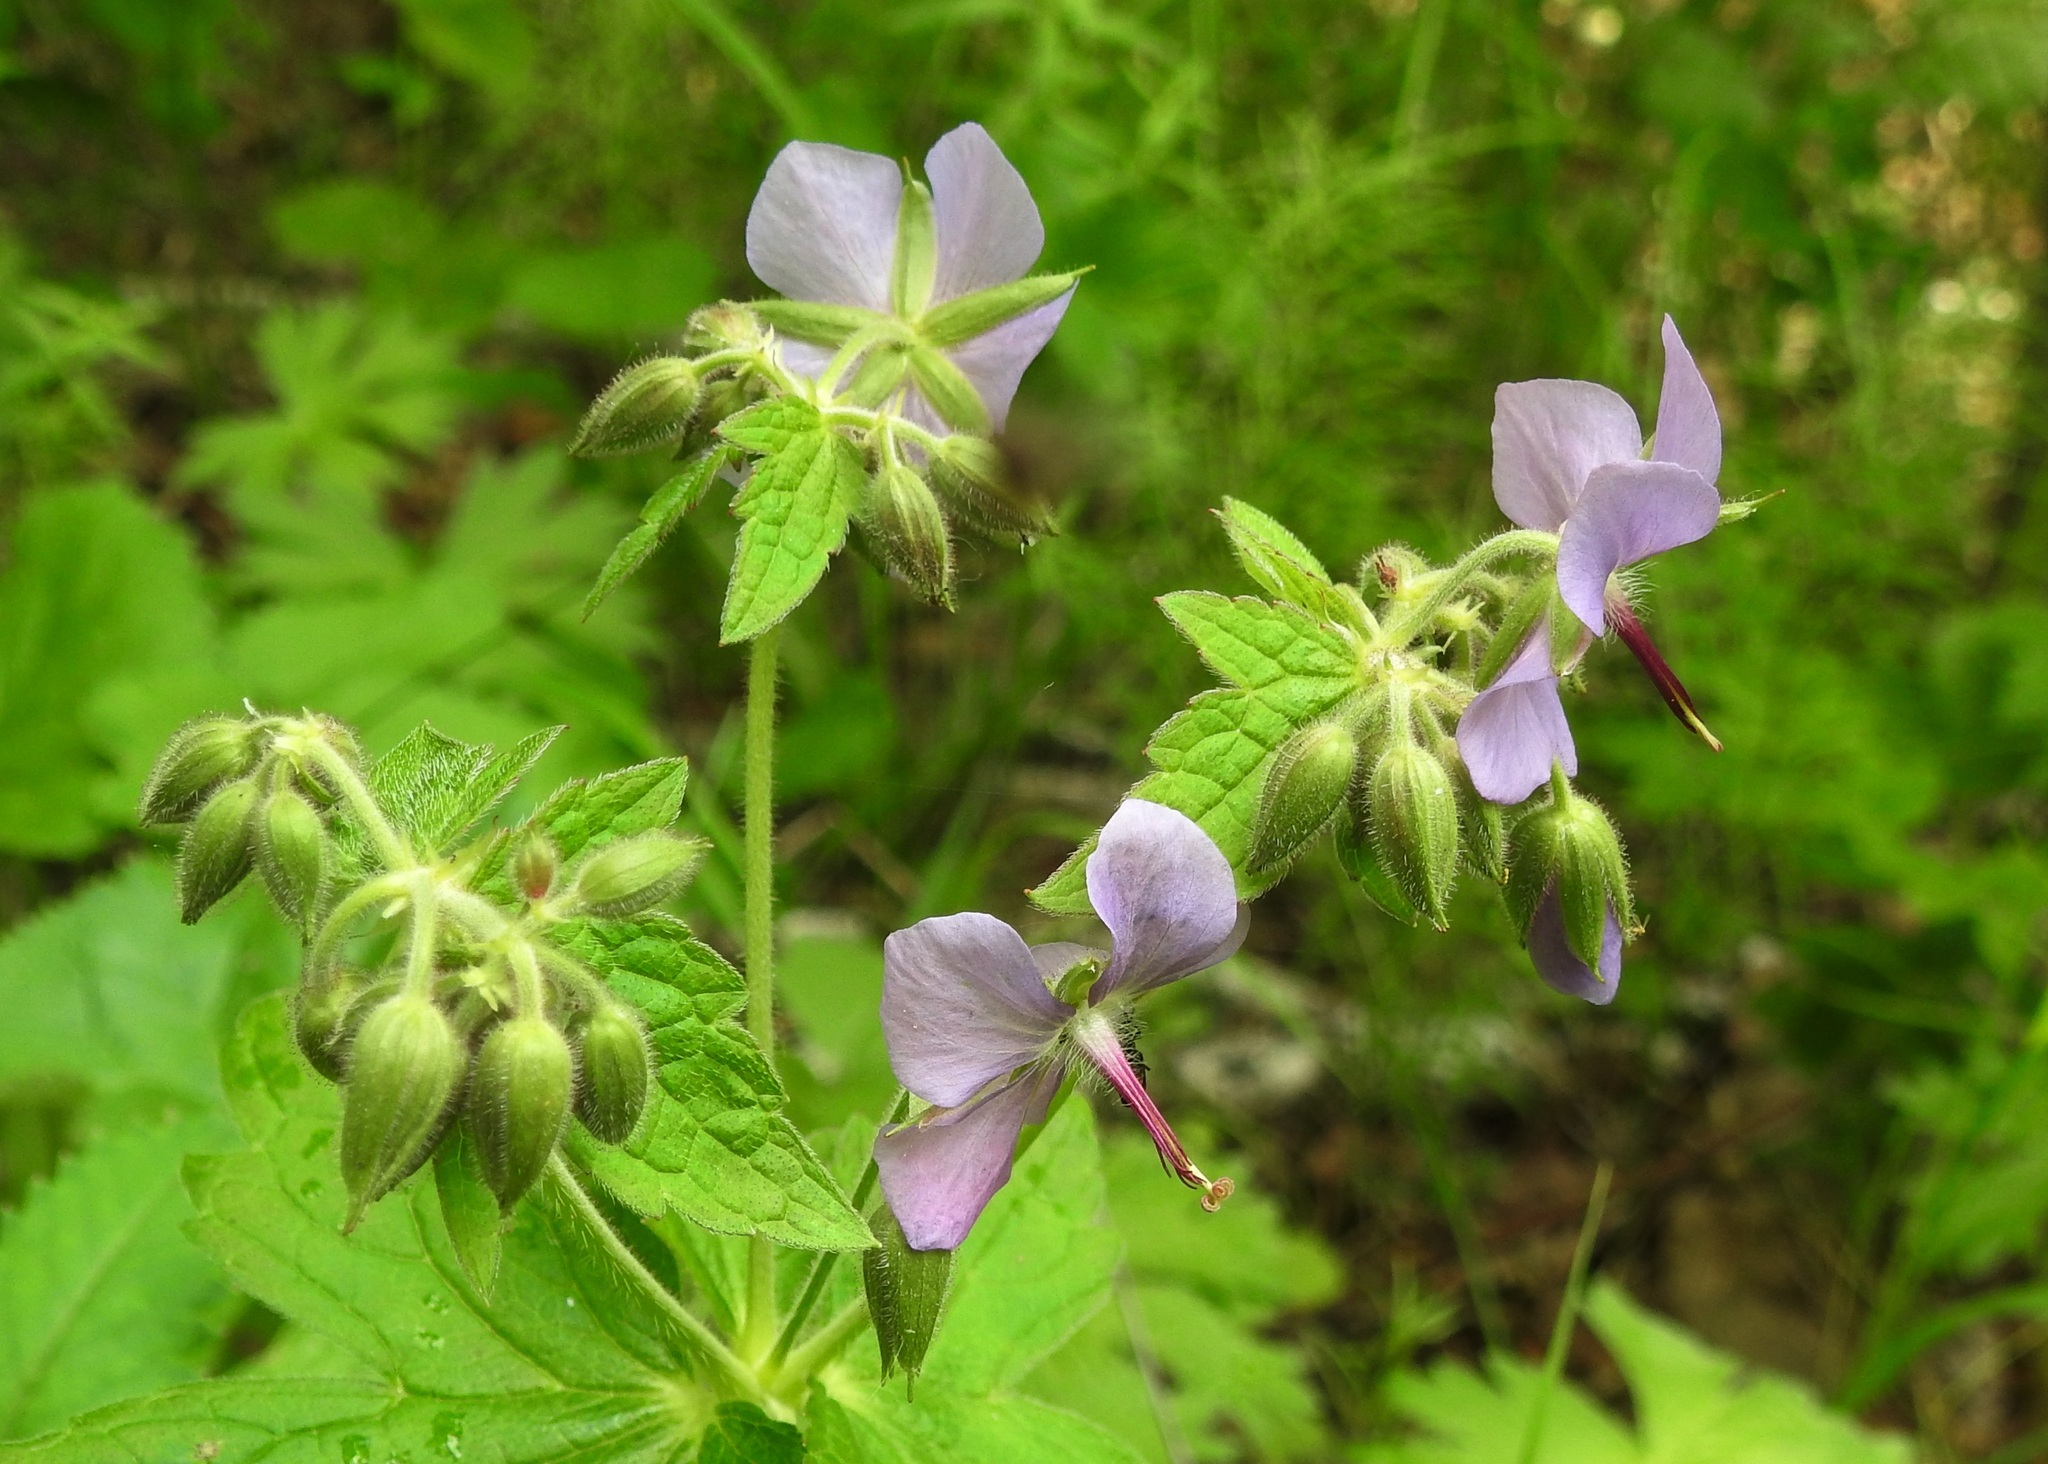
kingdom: Plantae
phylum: Tracheophyta
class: Magnoliopsida
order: Geraniales
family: Geraniaceae
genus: Geranium
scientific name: Geranium platyanthum
